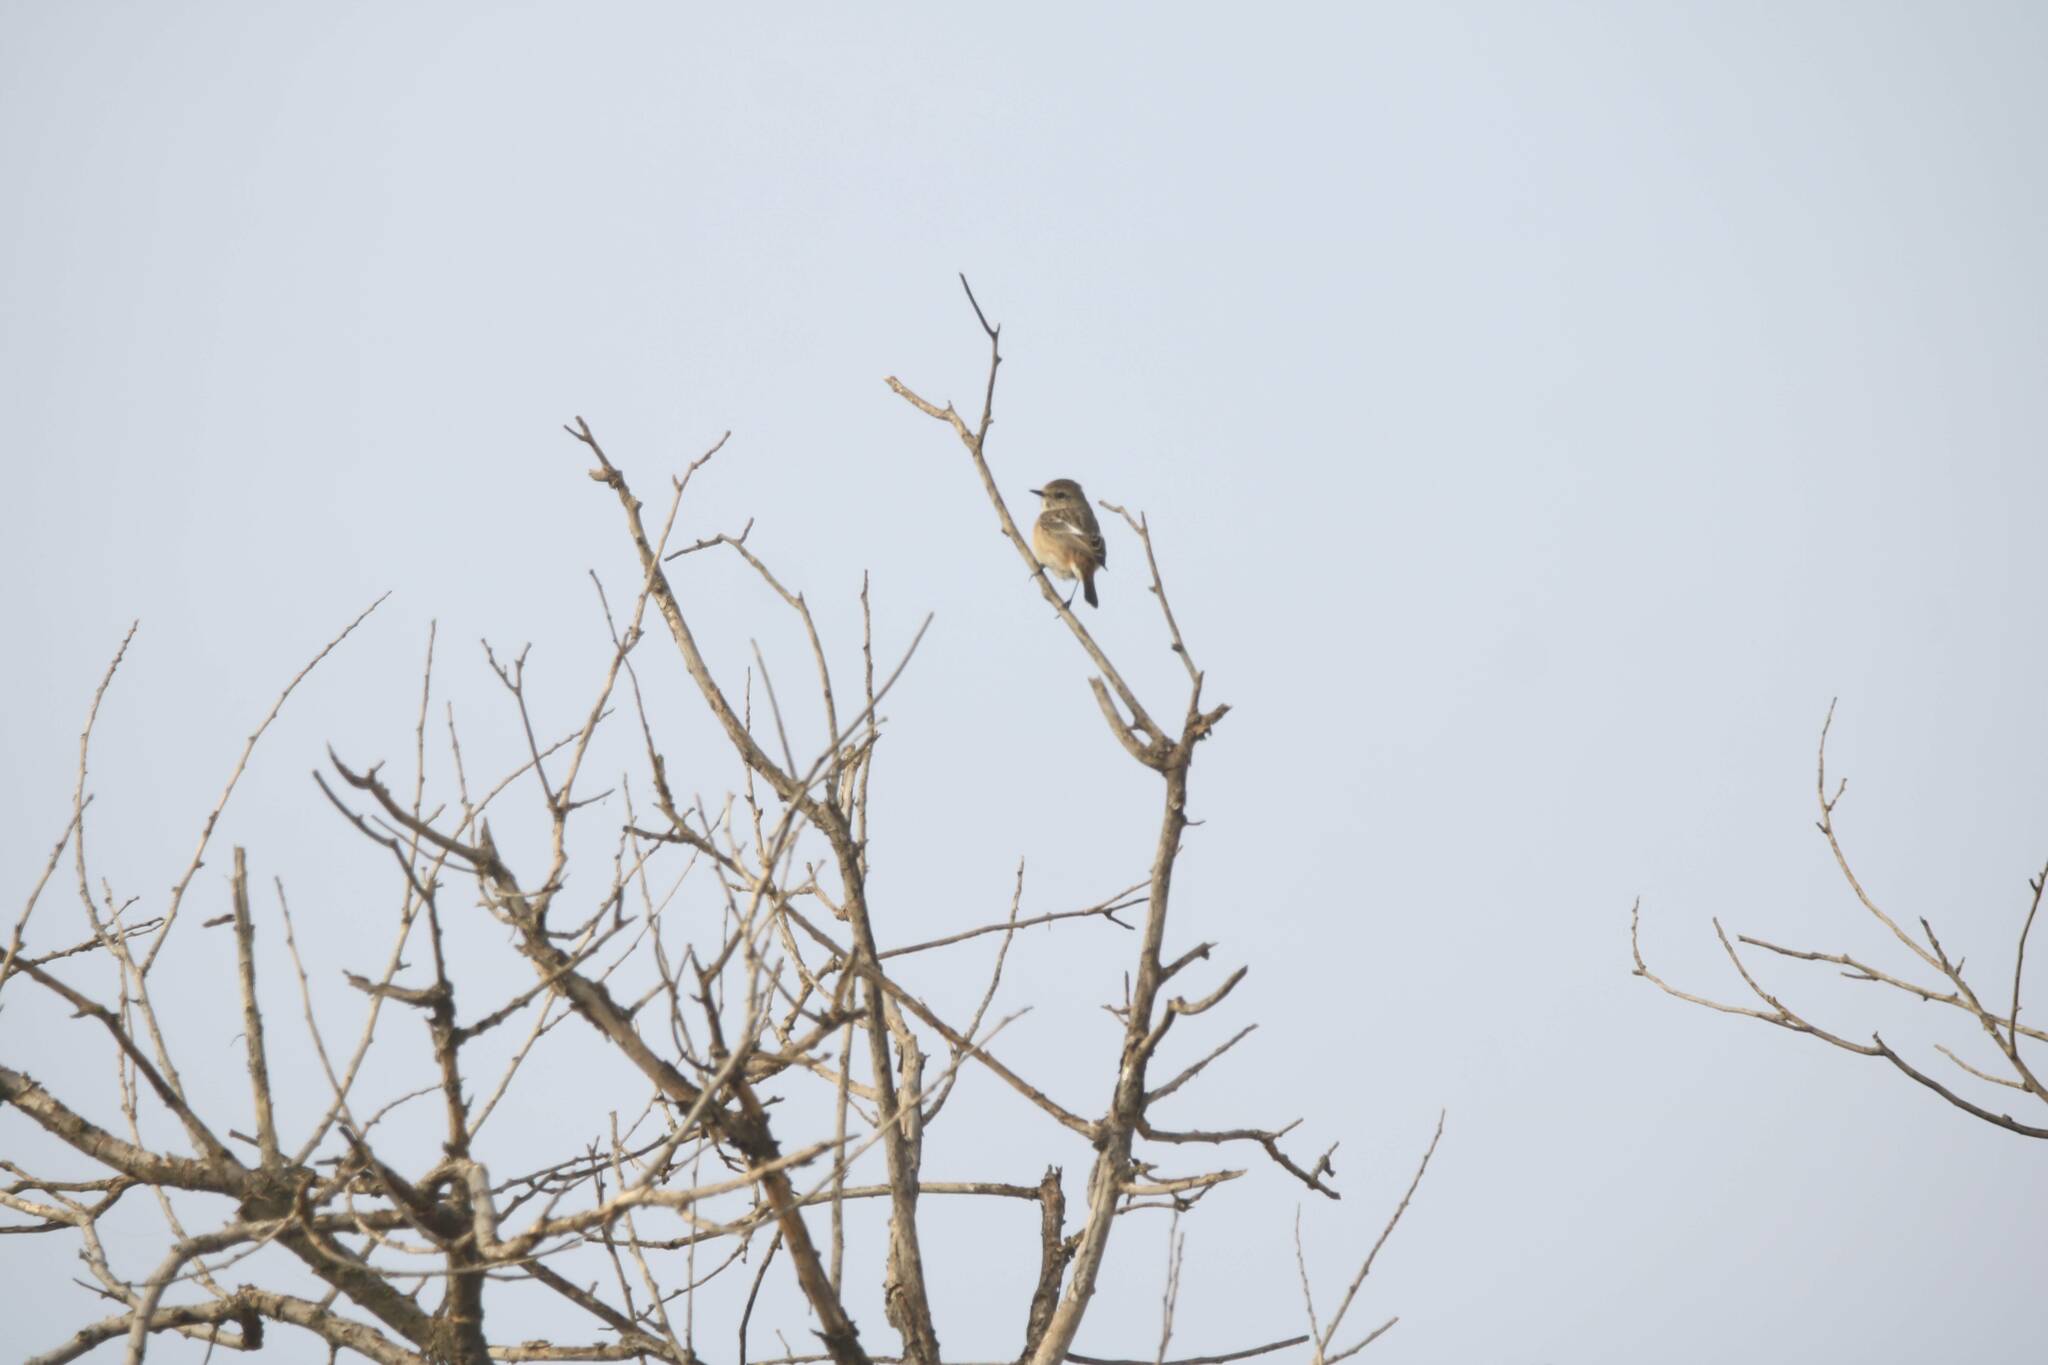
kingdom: Animalia
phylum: Chordata
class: Aves
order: Passeriformes
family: Muscicapidae
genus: Saxicola
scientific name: Saxicola rubicola
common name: European stonechat
